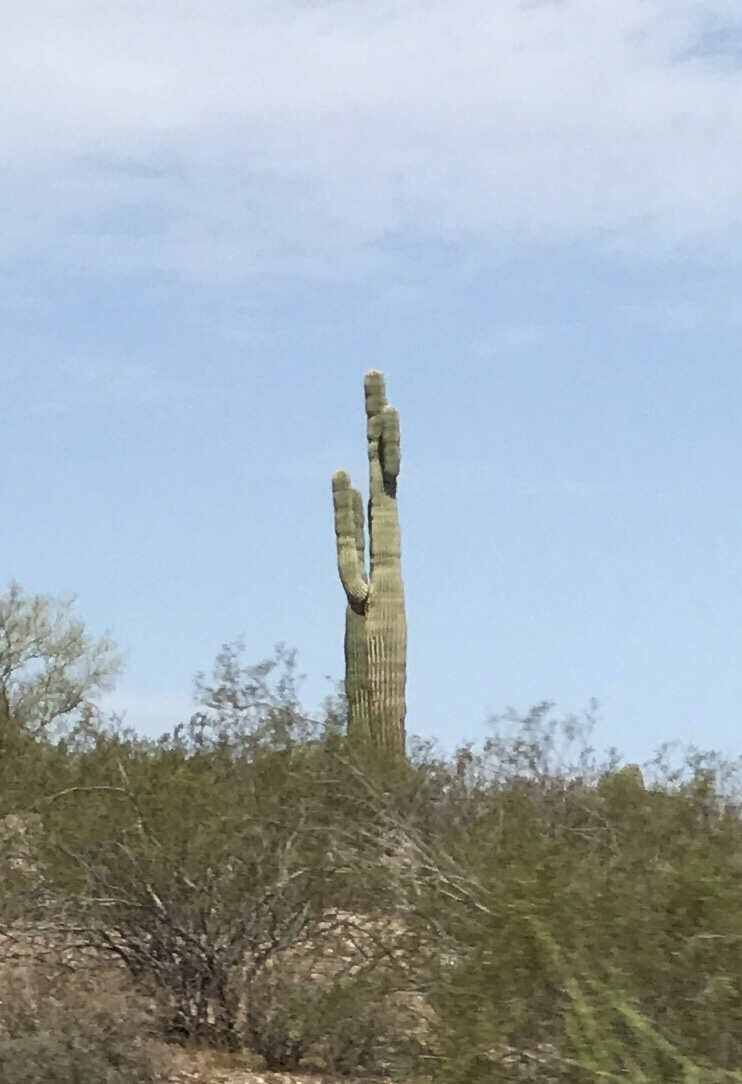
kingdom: Plantae
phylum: Tracheophyta
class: Magnoliopsida
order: Caryophyllales
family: Cactaceae
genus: Carnegiea
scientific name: Carnegiea gigantea
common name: Saguaro
